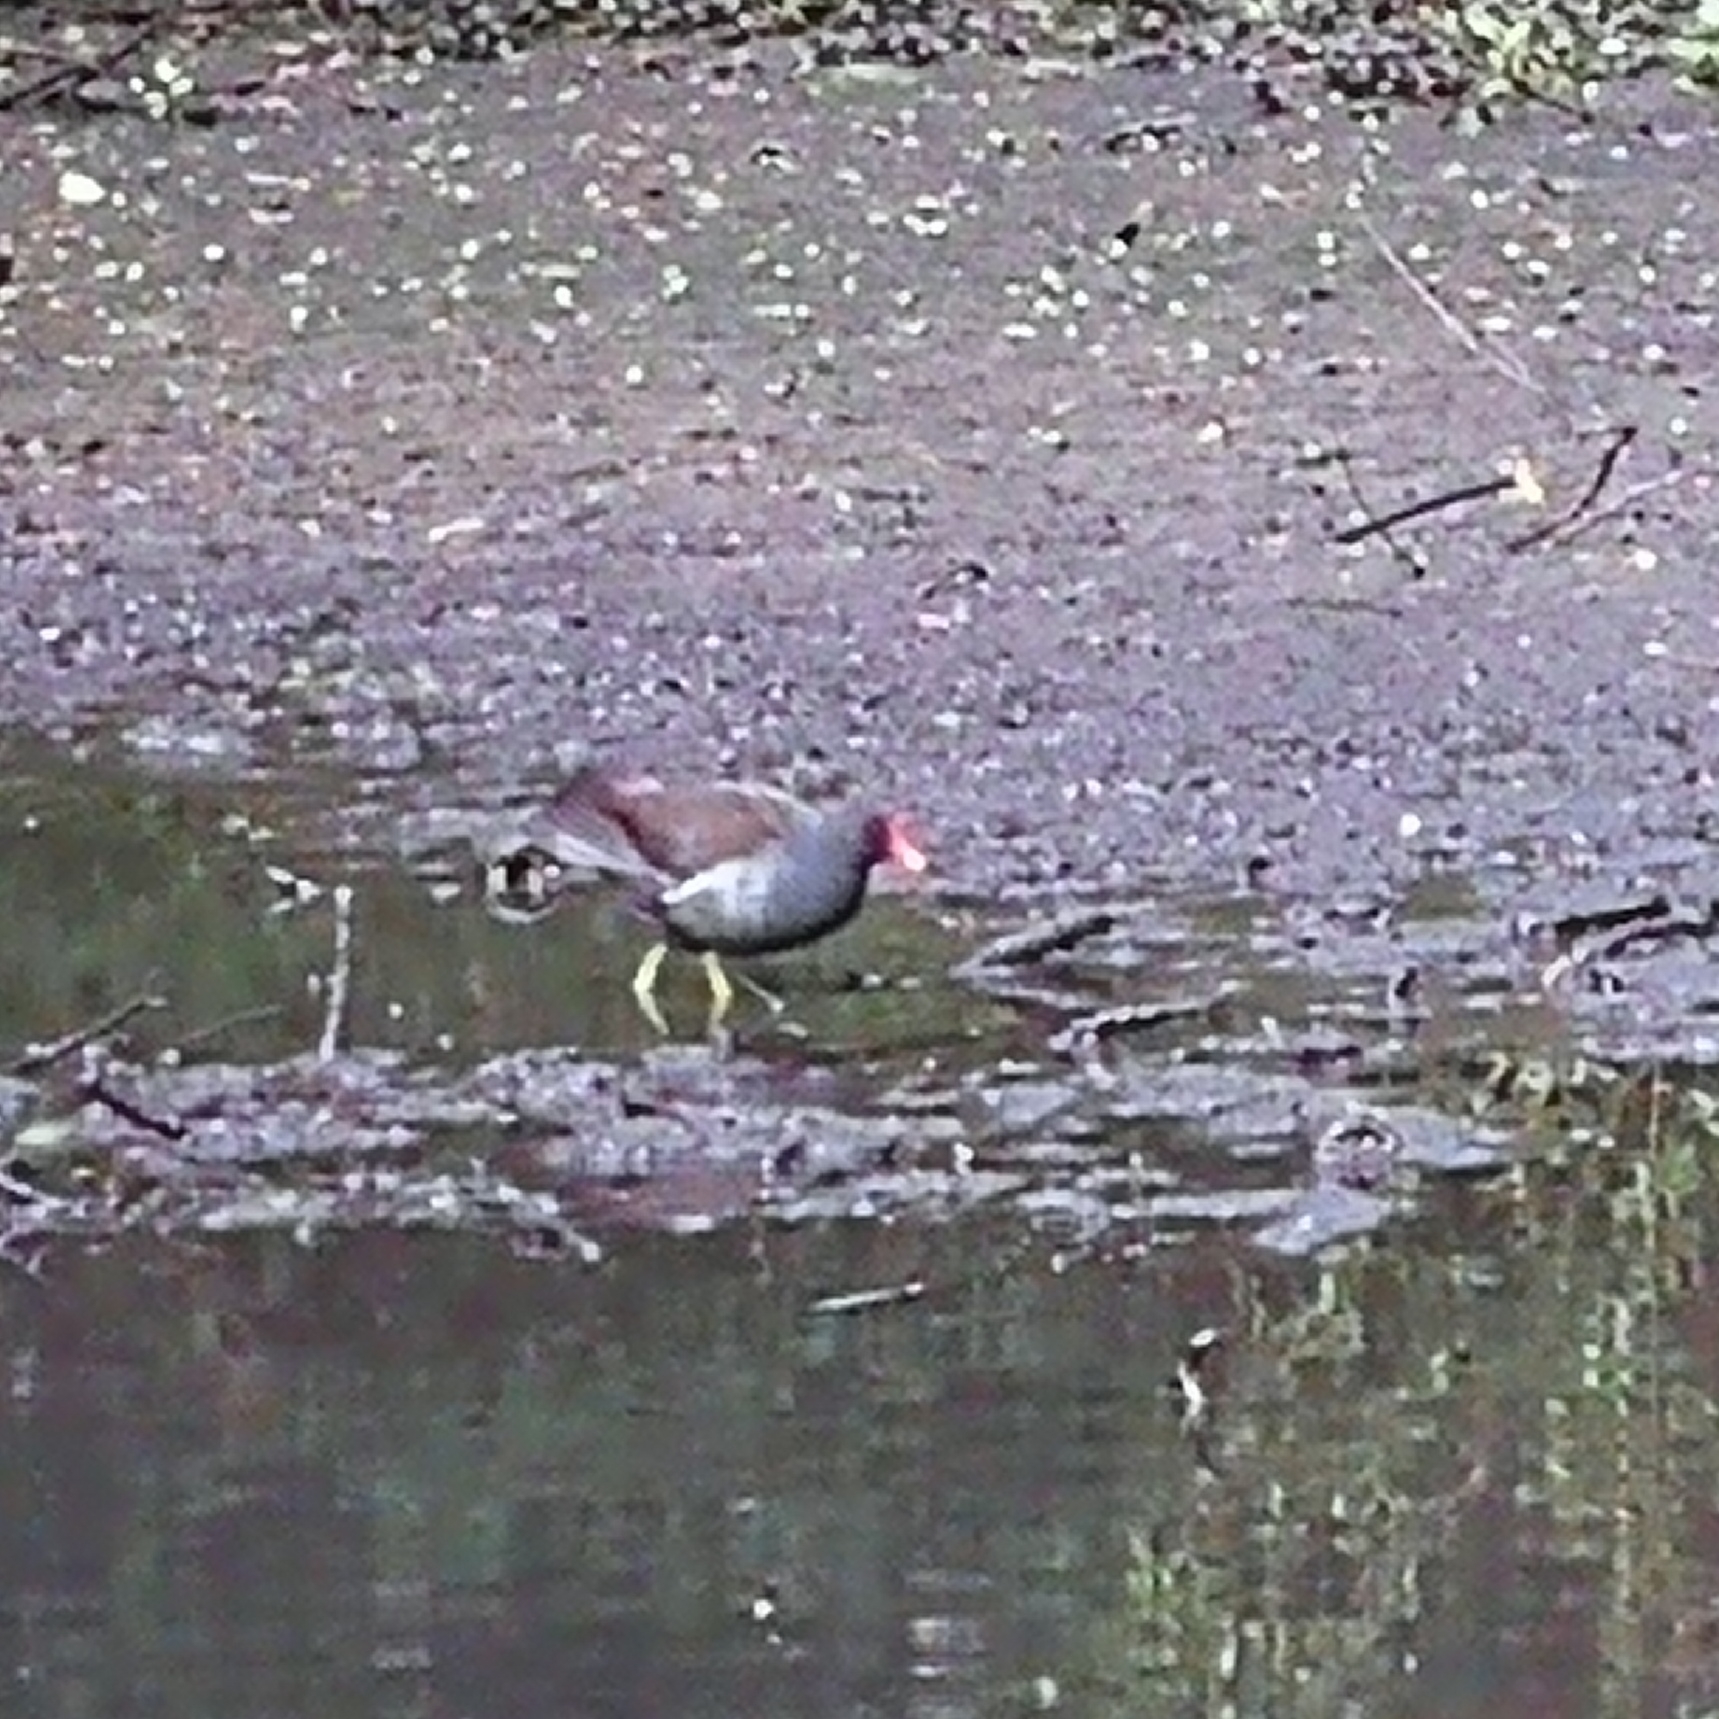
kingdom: Animalia
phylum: Chordata
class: Aves
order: Gruiformes
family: Rallidae
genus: Gallinula
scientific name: Gallinula chloropus
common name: Common moorhen
